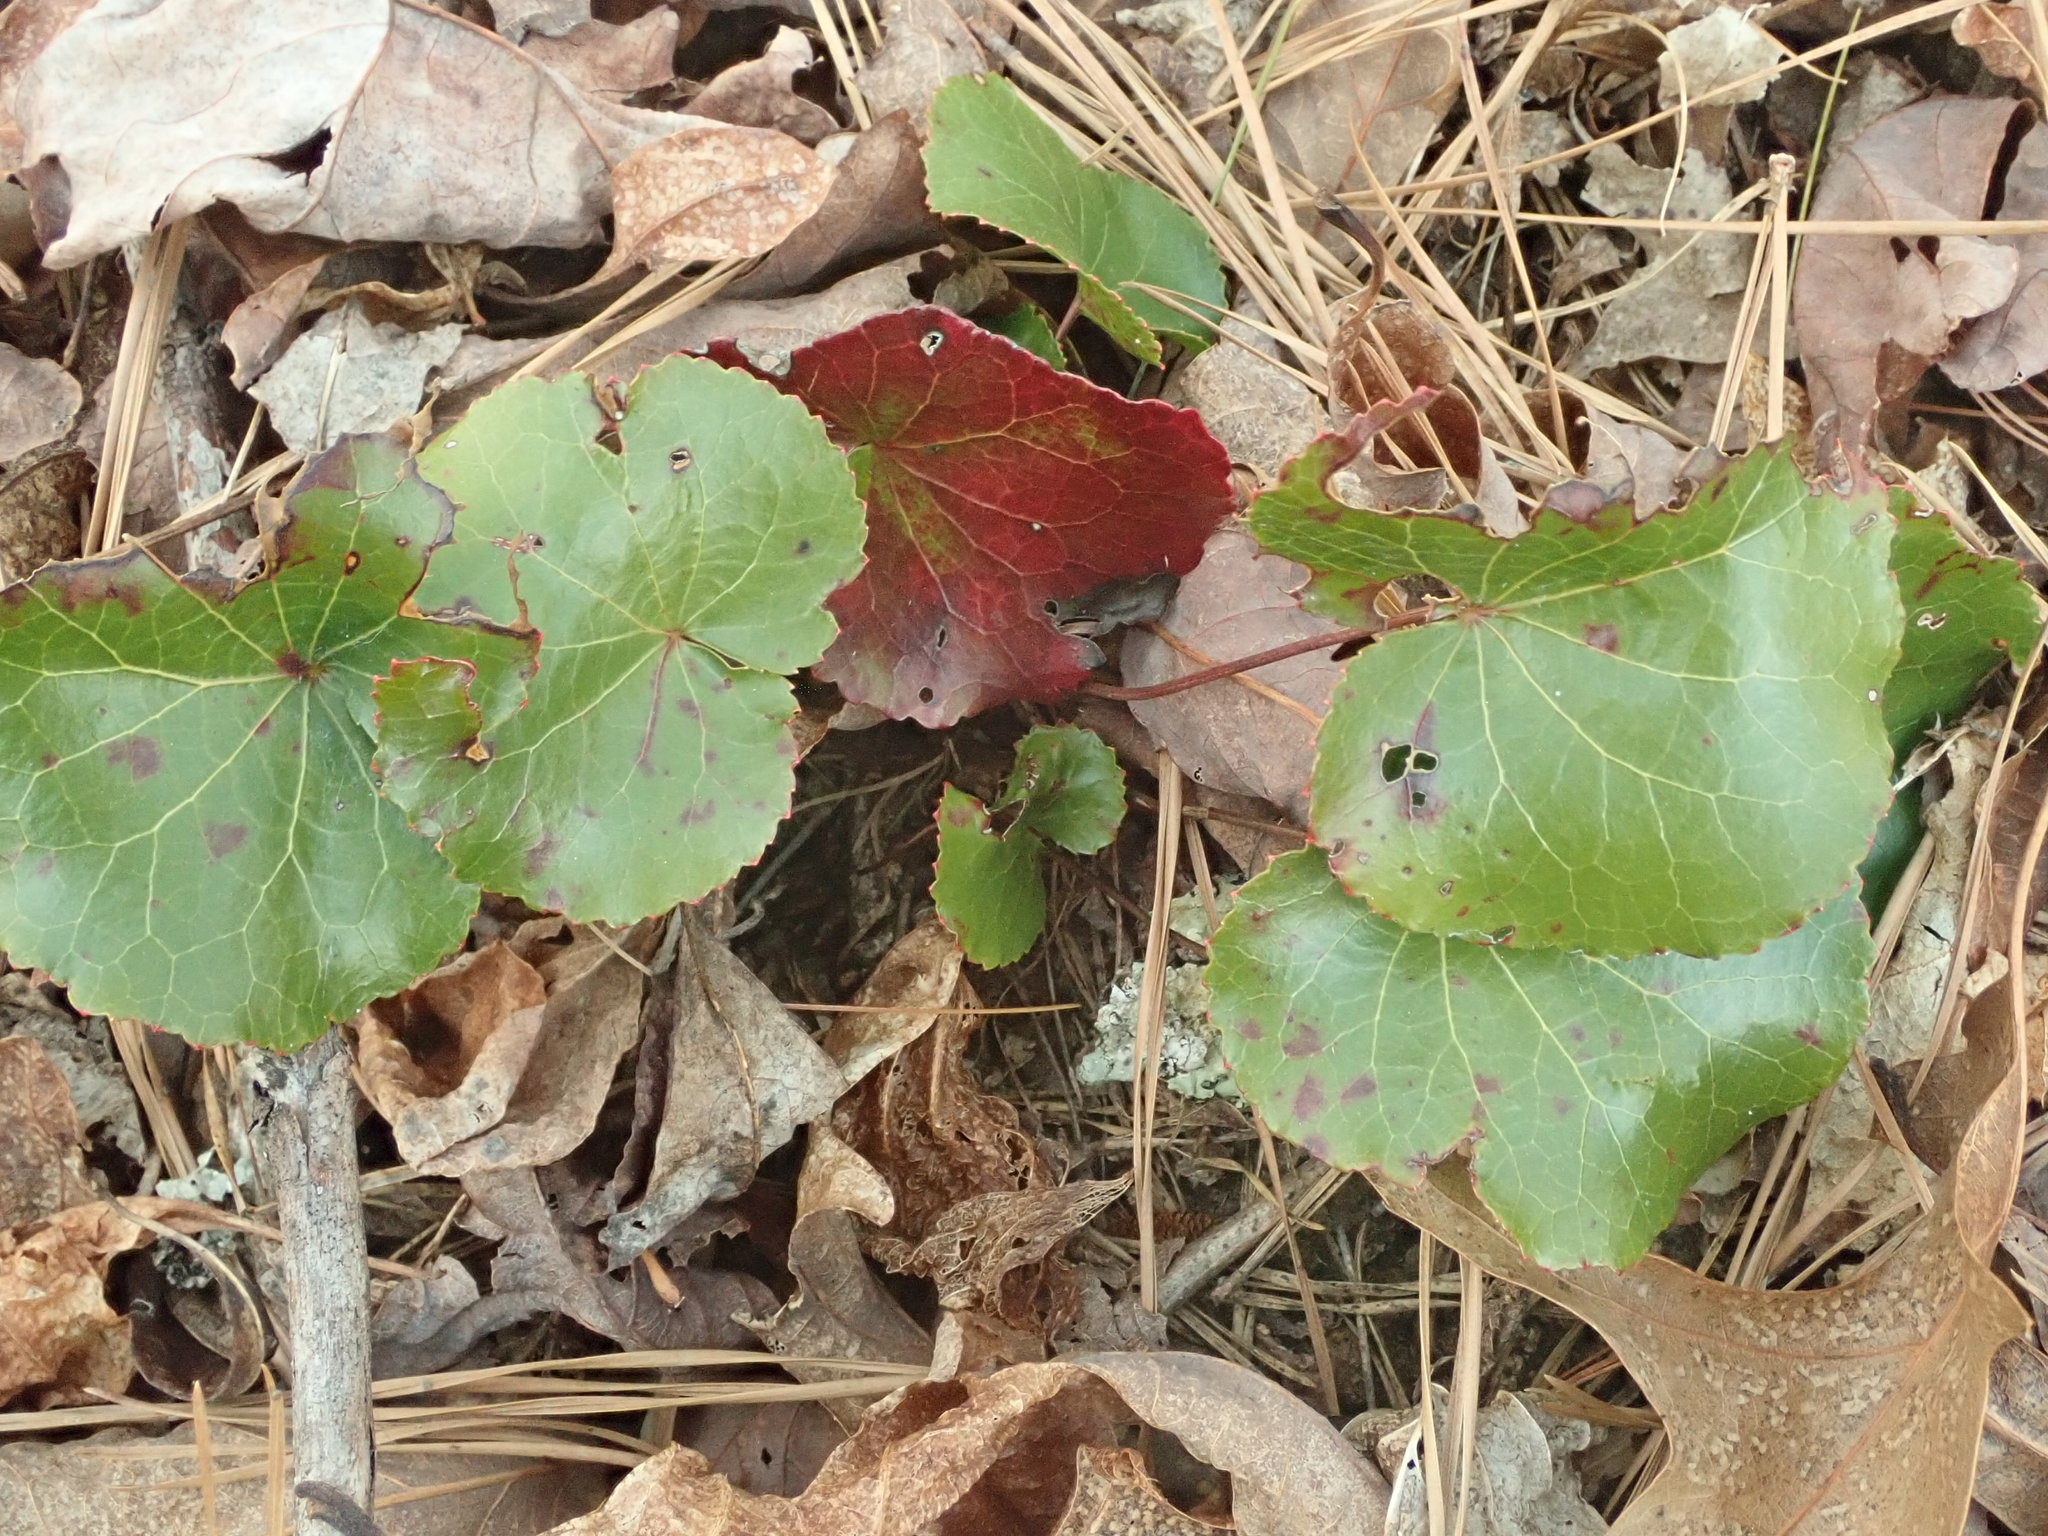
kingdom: Plantae
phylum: Tracheophyta
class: Magnoliopsida
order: Ericales
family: Diapensiaceae
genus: Galax
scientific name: Galax urceolata
